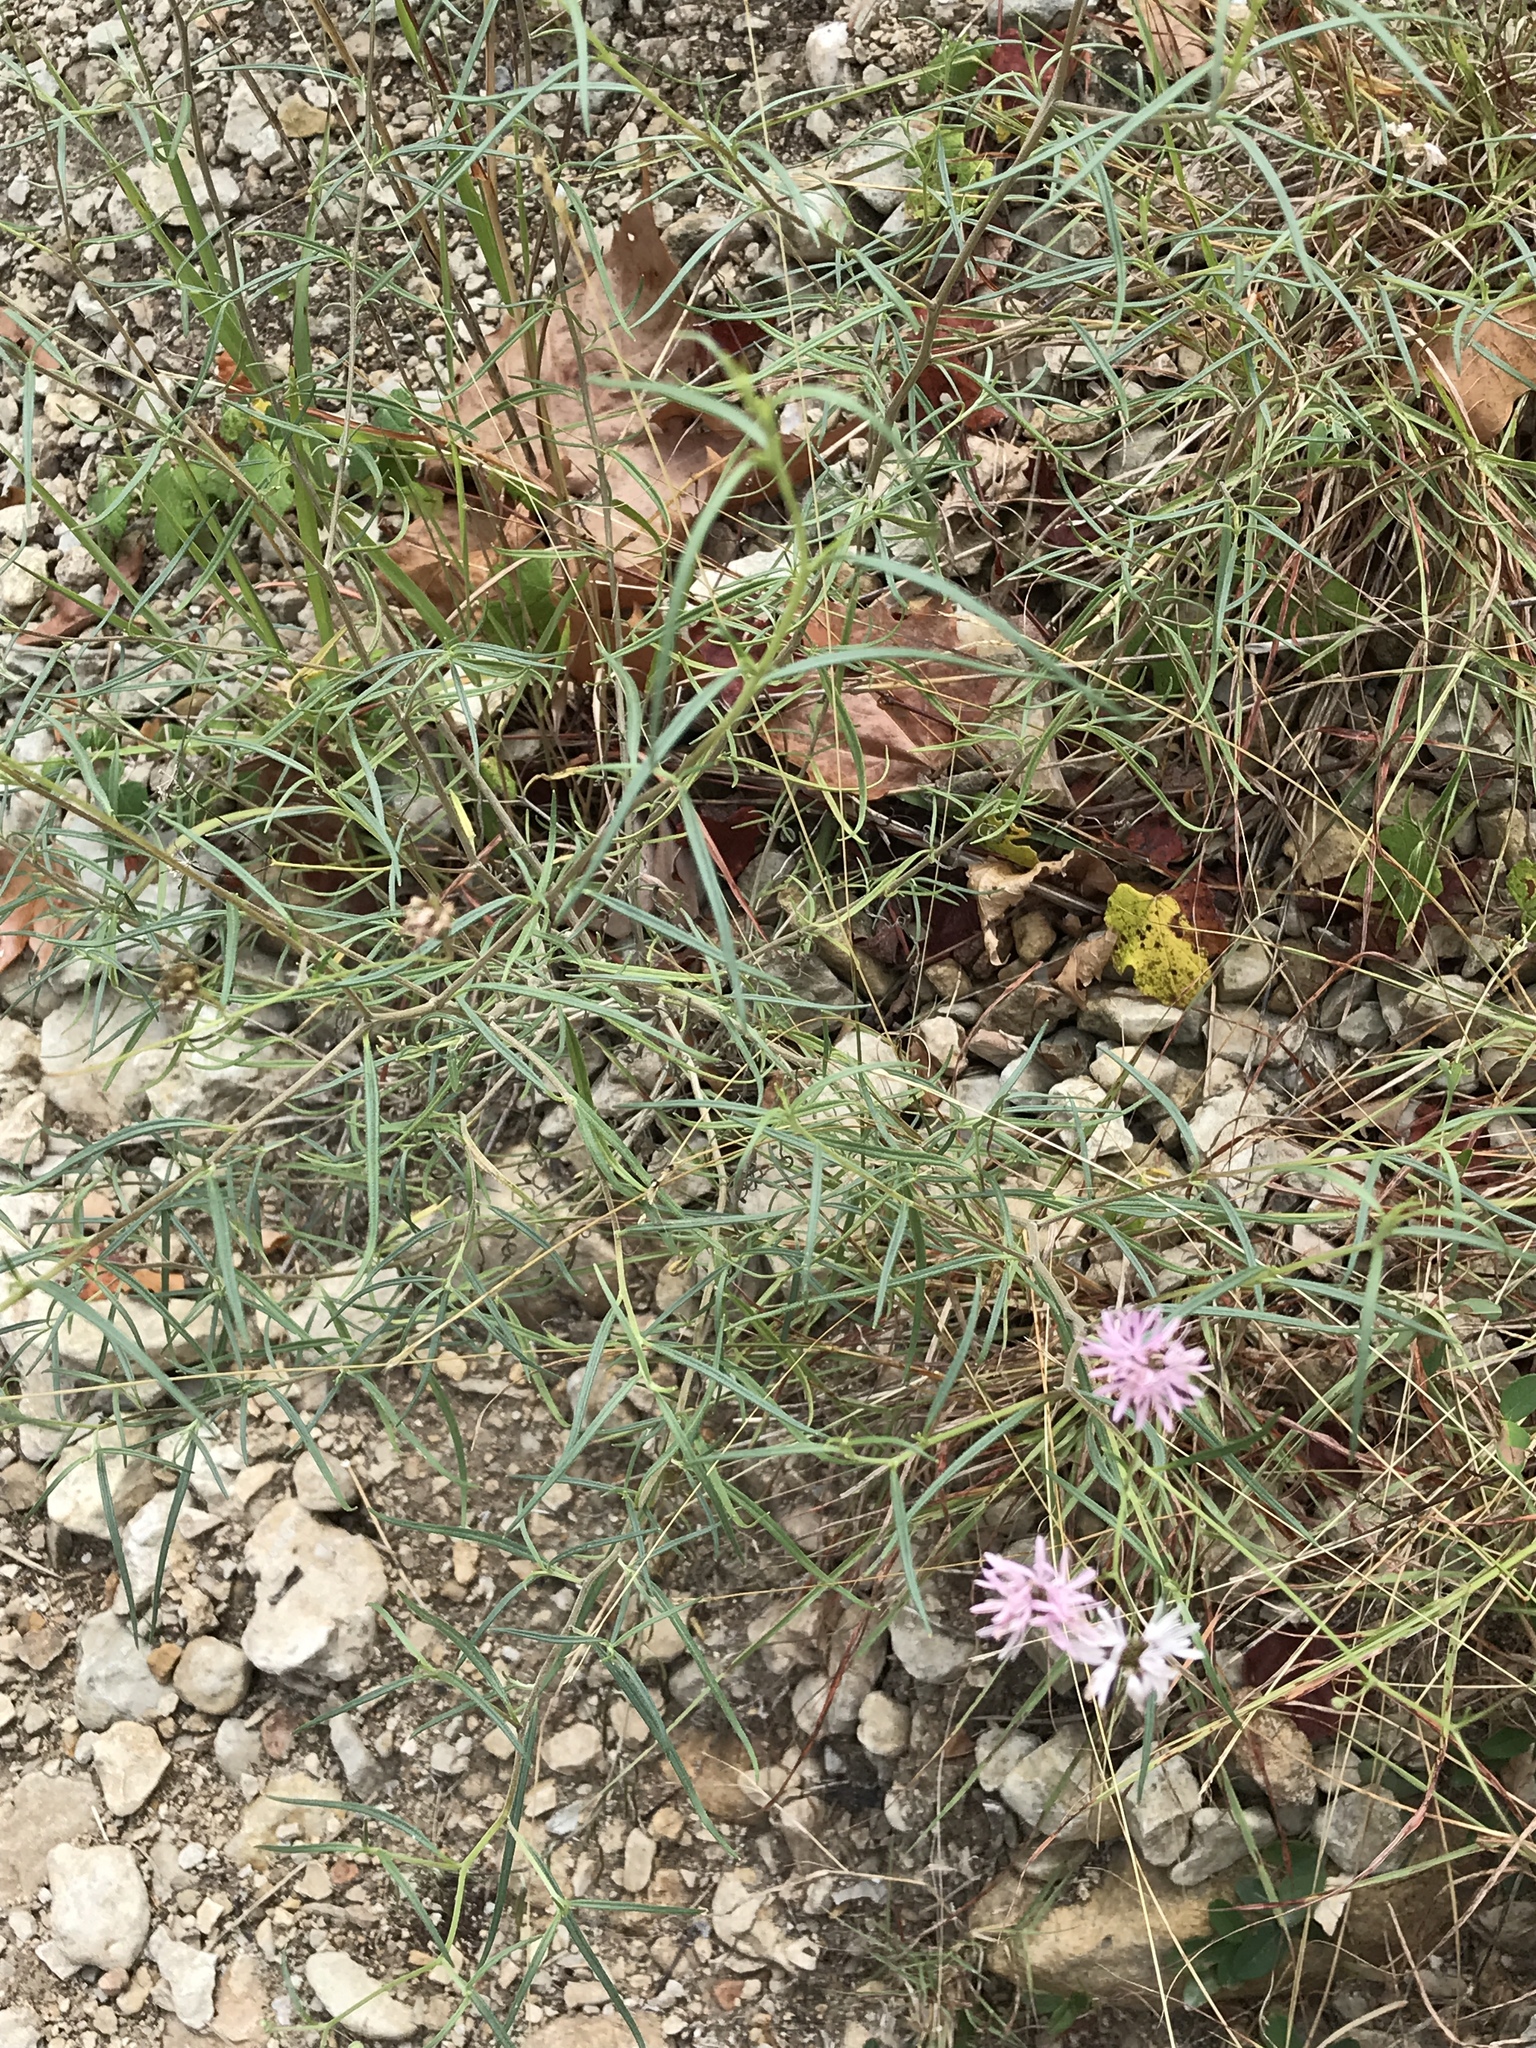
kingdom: Plantae
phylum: Tracheophyta
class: Magnoliopsida
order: Asterales
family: Asteraceae
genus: Palafoxia
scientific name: Palafoxia callosa
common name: Small palafox
